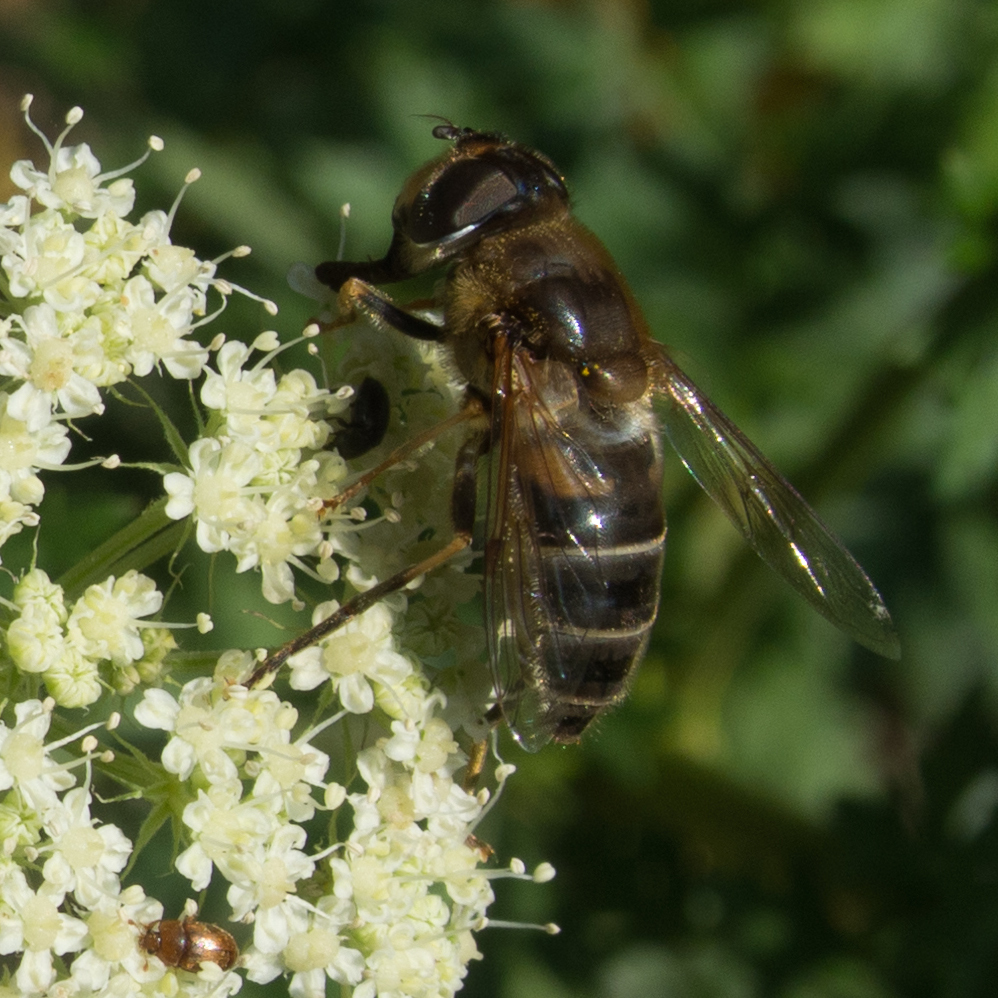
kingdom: Animalia
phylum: Arthropoda
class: Insecta
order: Diptera
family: Syrphidae
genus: Eristalis
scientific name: Eristalis pertinax
